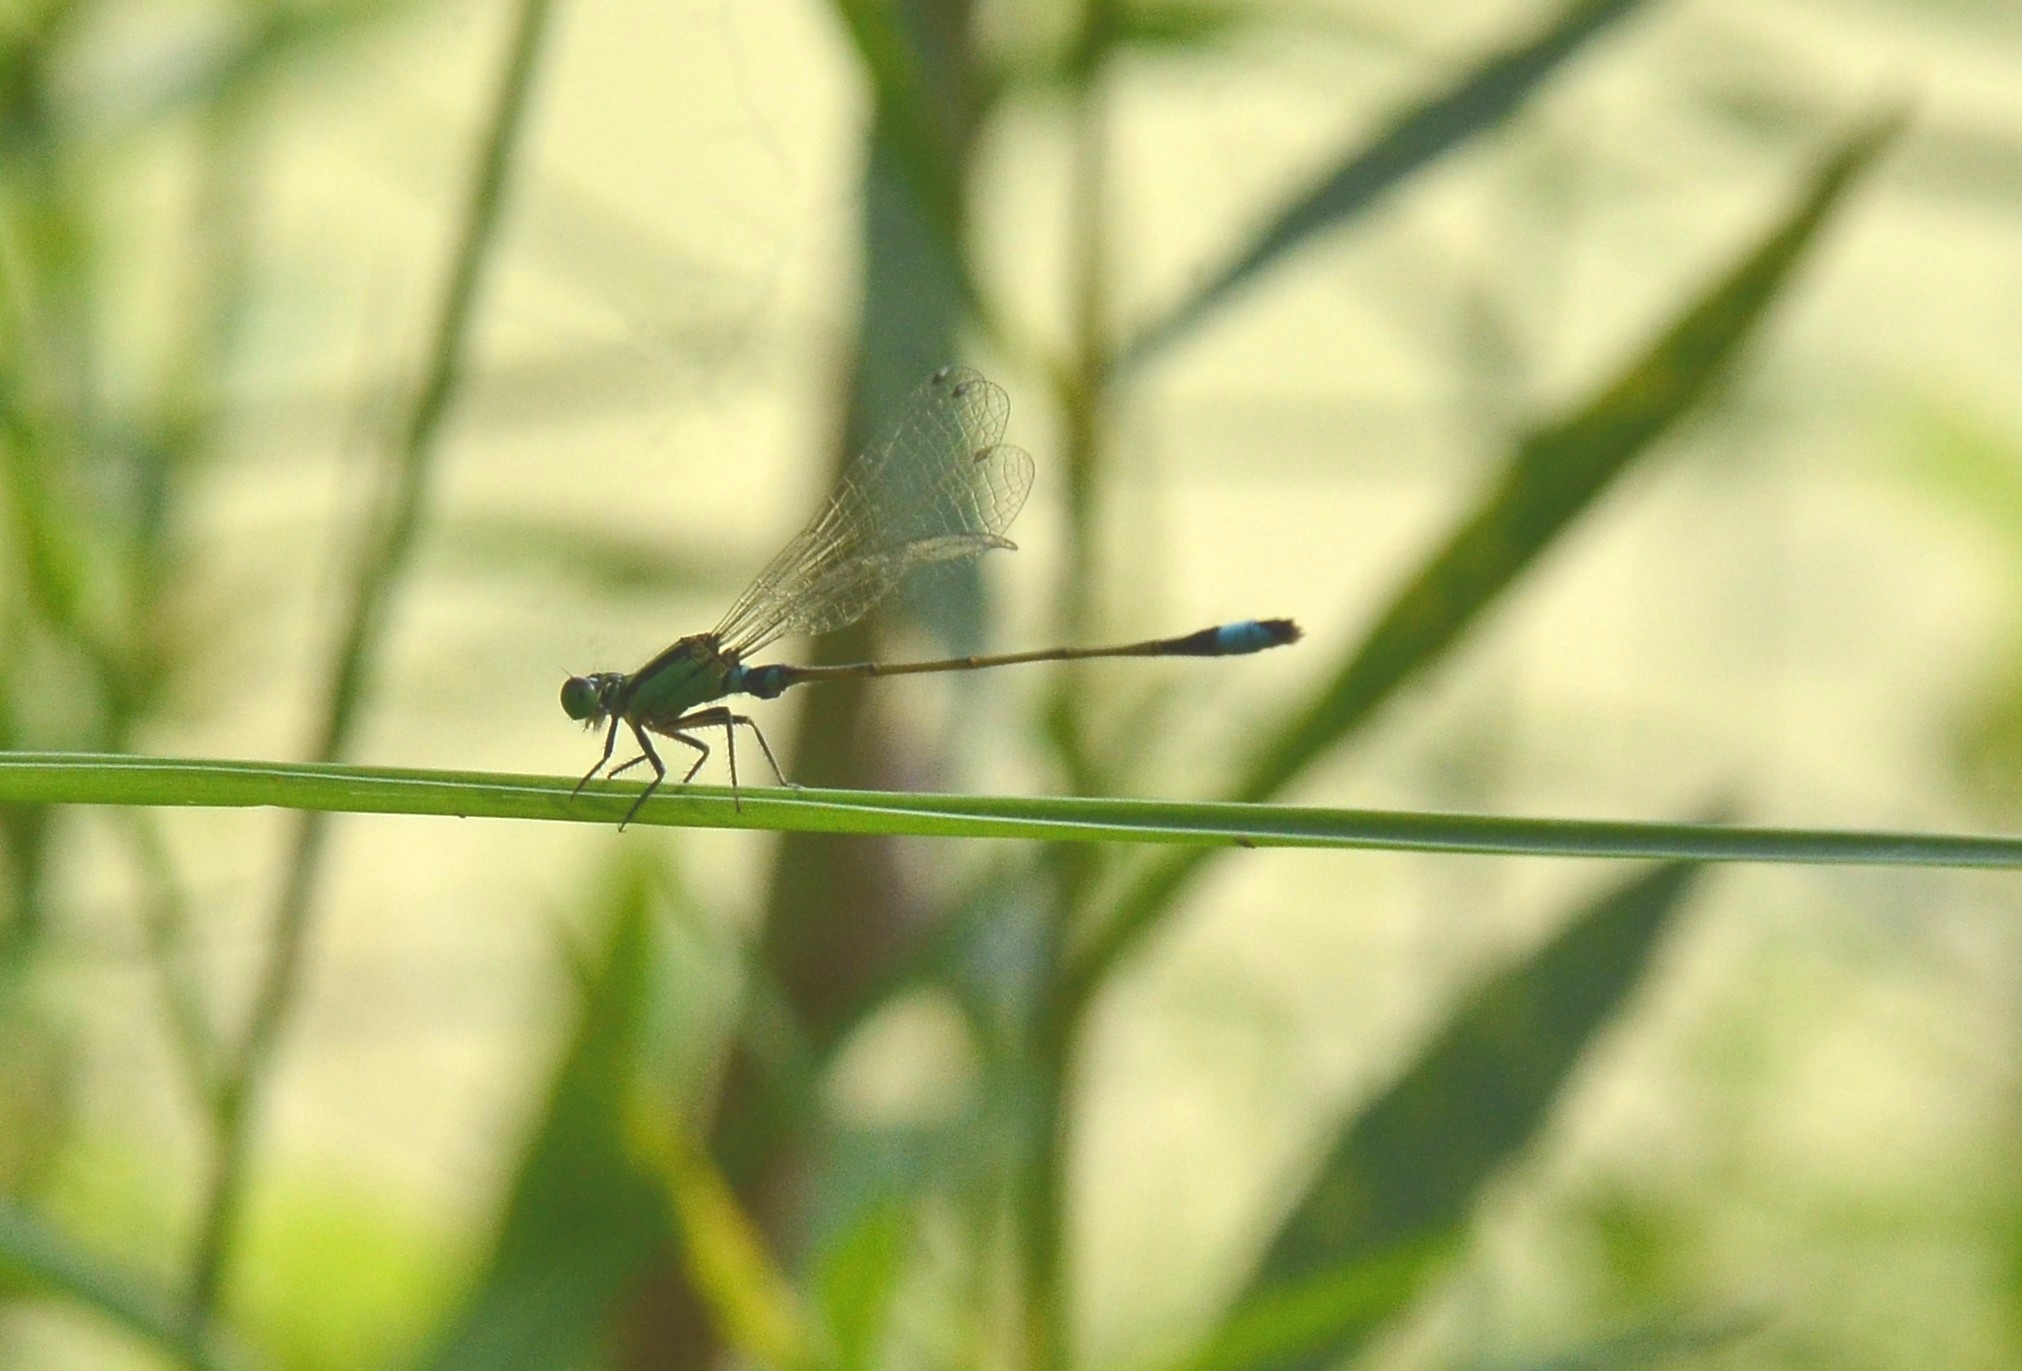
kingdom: Animalia
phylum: Arthropoda
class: Insecta
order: Odonata
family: Coenagrionidae
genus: Ischnura
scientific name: Ischnura senegalensis
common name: Tropical bluetail
